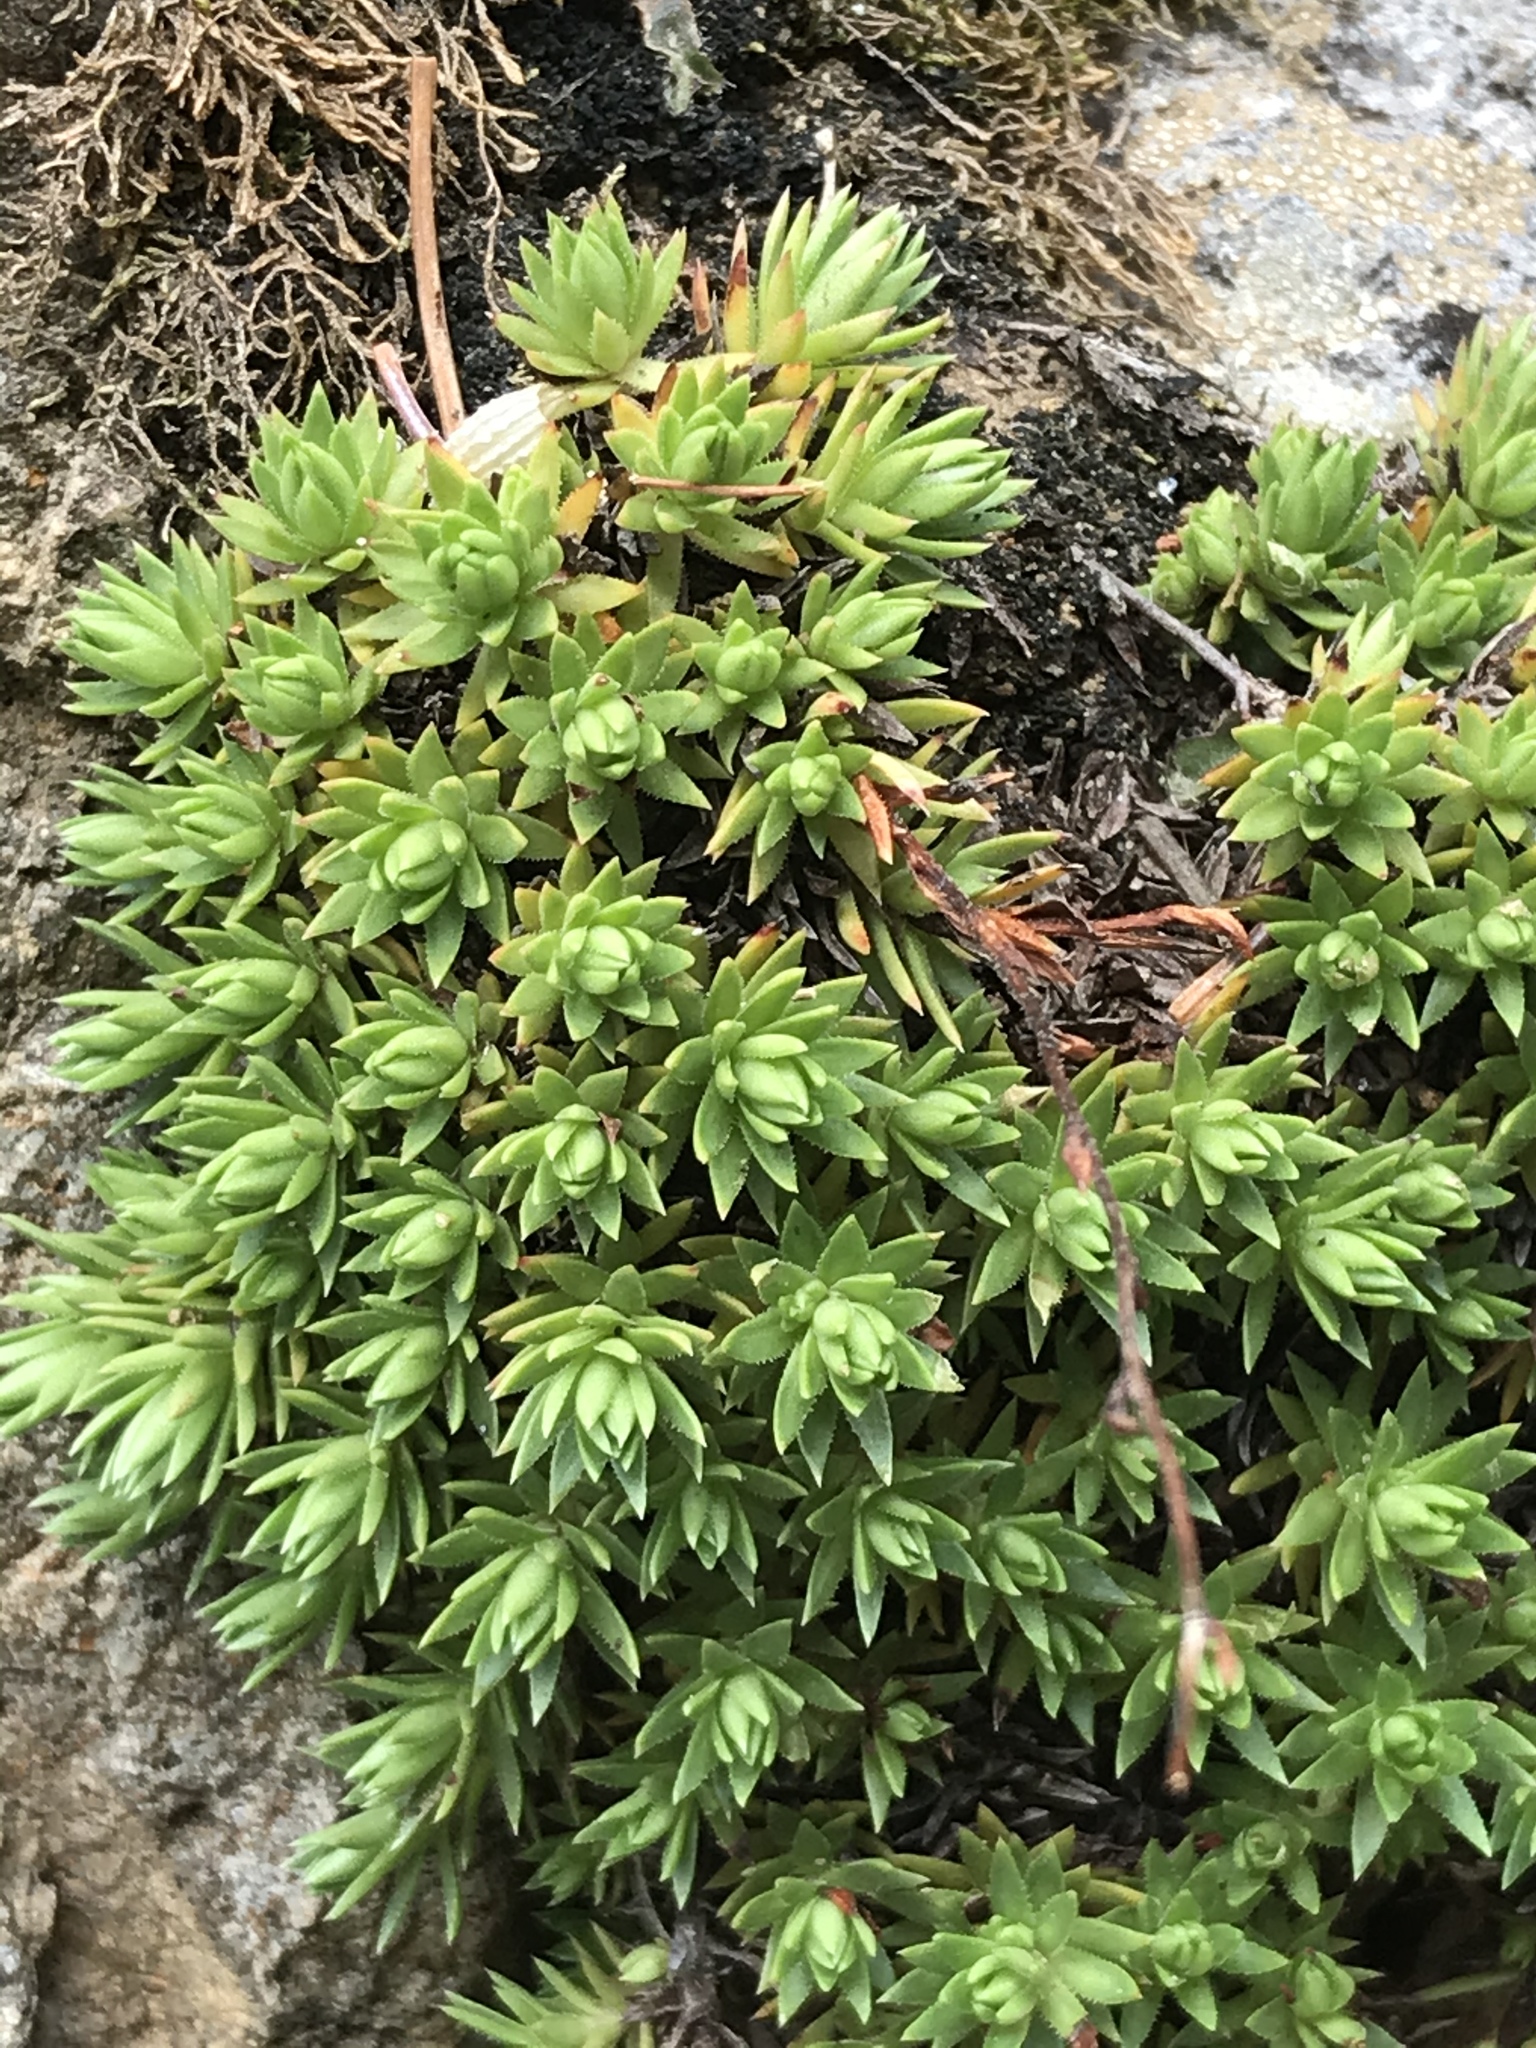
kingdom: Plantae
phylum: Tracheophyta
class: Magnoliopsida
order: Saxifragales
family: Saxifragaceae
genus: Saxifraga
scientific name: Saxifraga bronchialis
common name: Matted saxifrage
